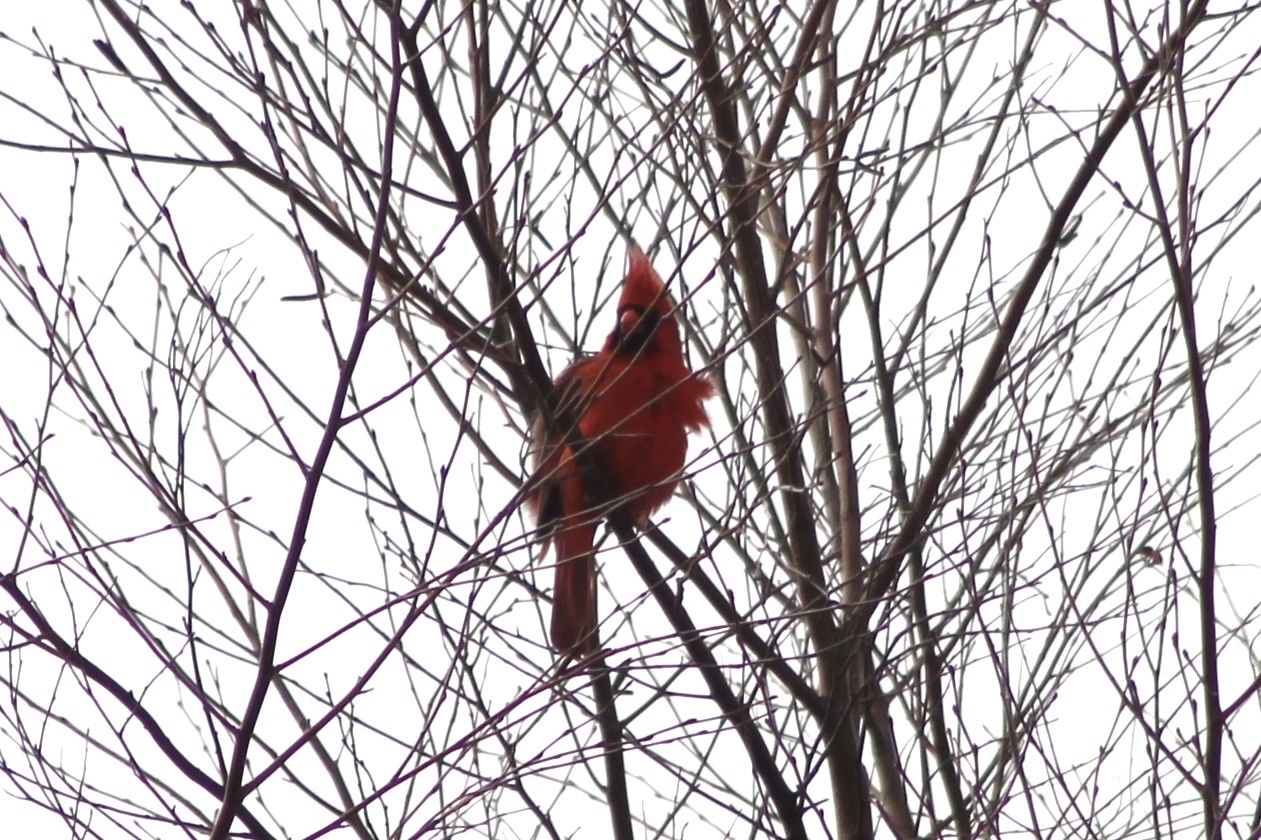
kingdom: Animalia
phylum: Chordata
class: Aves
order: Passeriformes
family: Cardinalidae
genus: Cardinalis
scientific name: Cardinalis cardinalis
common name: Northern cardinal
